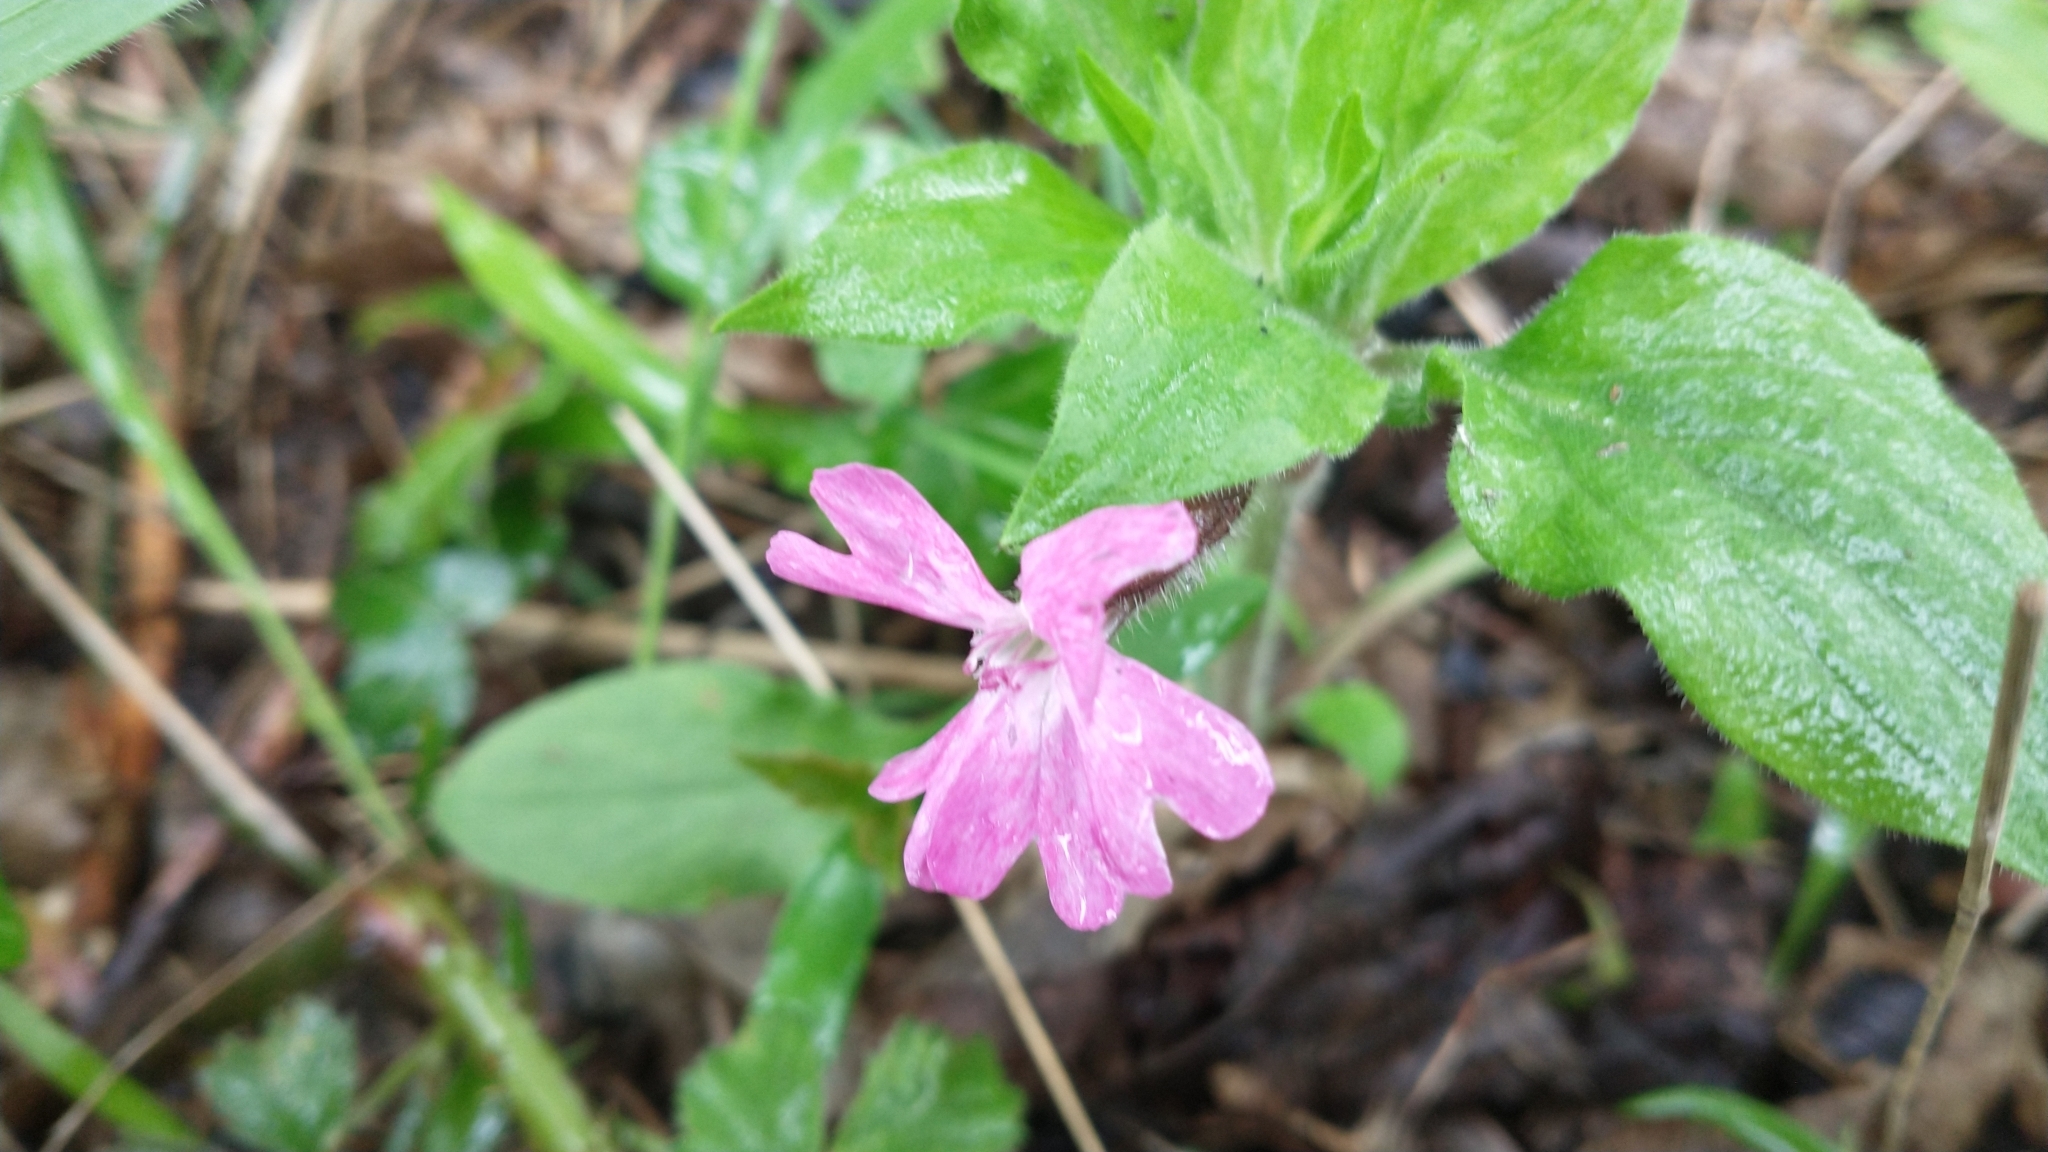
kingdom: Plantae
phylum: Tracheophyta
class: Magnoliopsida
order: Caryophyllales
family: Caryophyllaceae
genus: Silene
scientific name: Silene dioica
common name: Red campion
